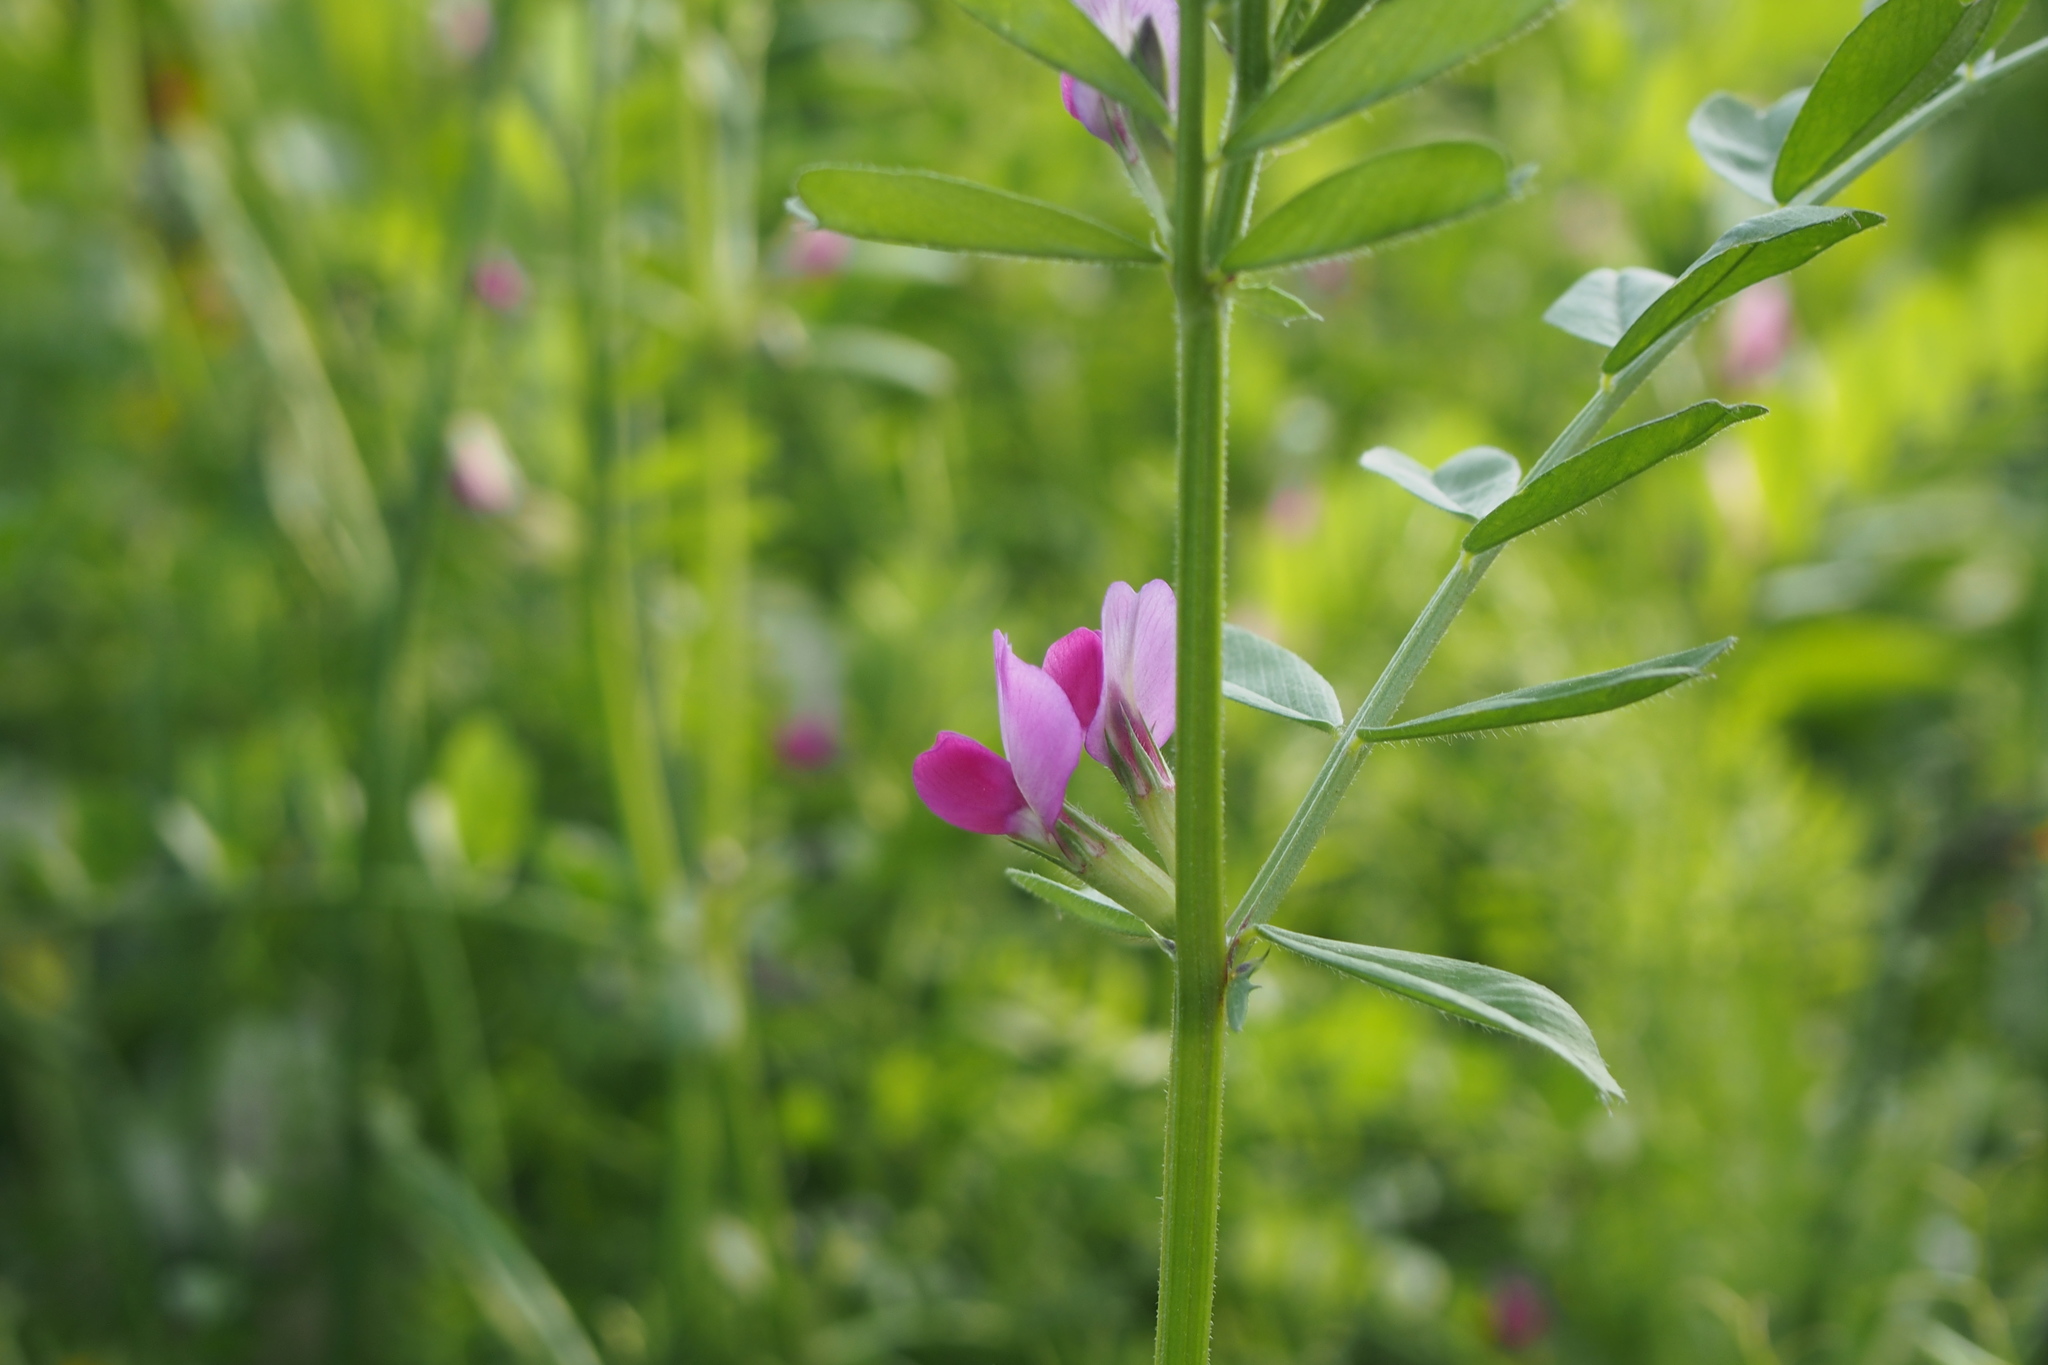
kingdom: Plantae
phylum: Tracheophyta
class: Magnoliopsida
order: Fabales
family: Fabaceae
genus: Vicia
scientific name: Vicia sativa
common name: Garden vetch
